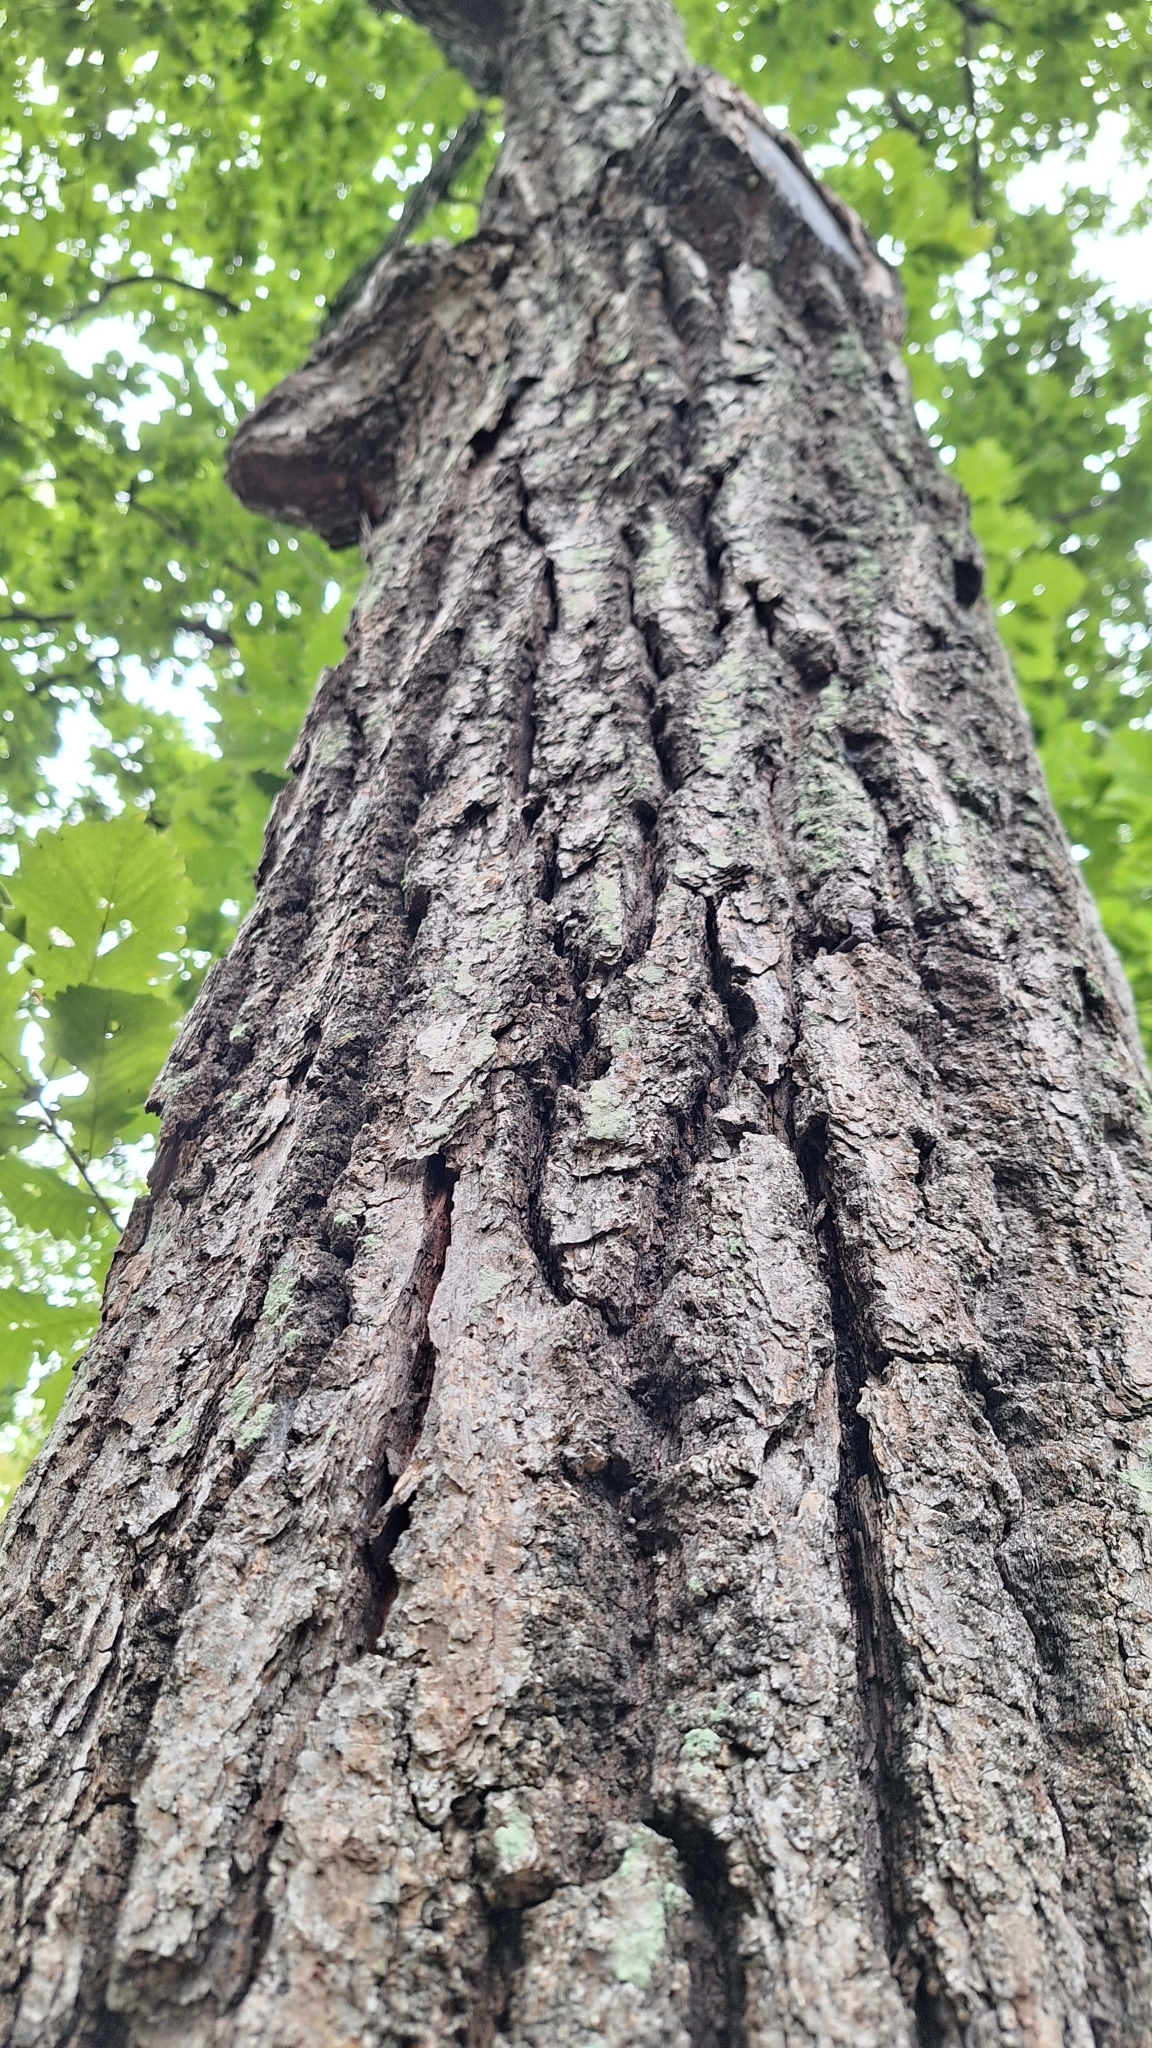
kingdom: Plantae
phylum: Tracheophyta
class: Magnoliopsida
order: Fagales
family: Fagaceae
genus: Quercus
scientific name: Quercus mongolica
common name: Mongolian oak
